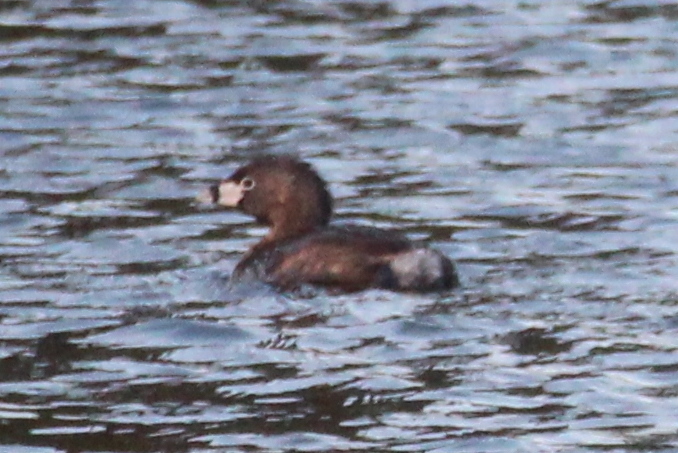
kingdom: Animalia
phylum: Chordata
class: Aves
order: Podicipediformes
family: Podicipedidae
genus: Podilymbus
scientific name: Podilymbus podiceps
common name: Pied-billed grebe
